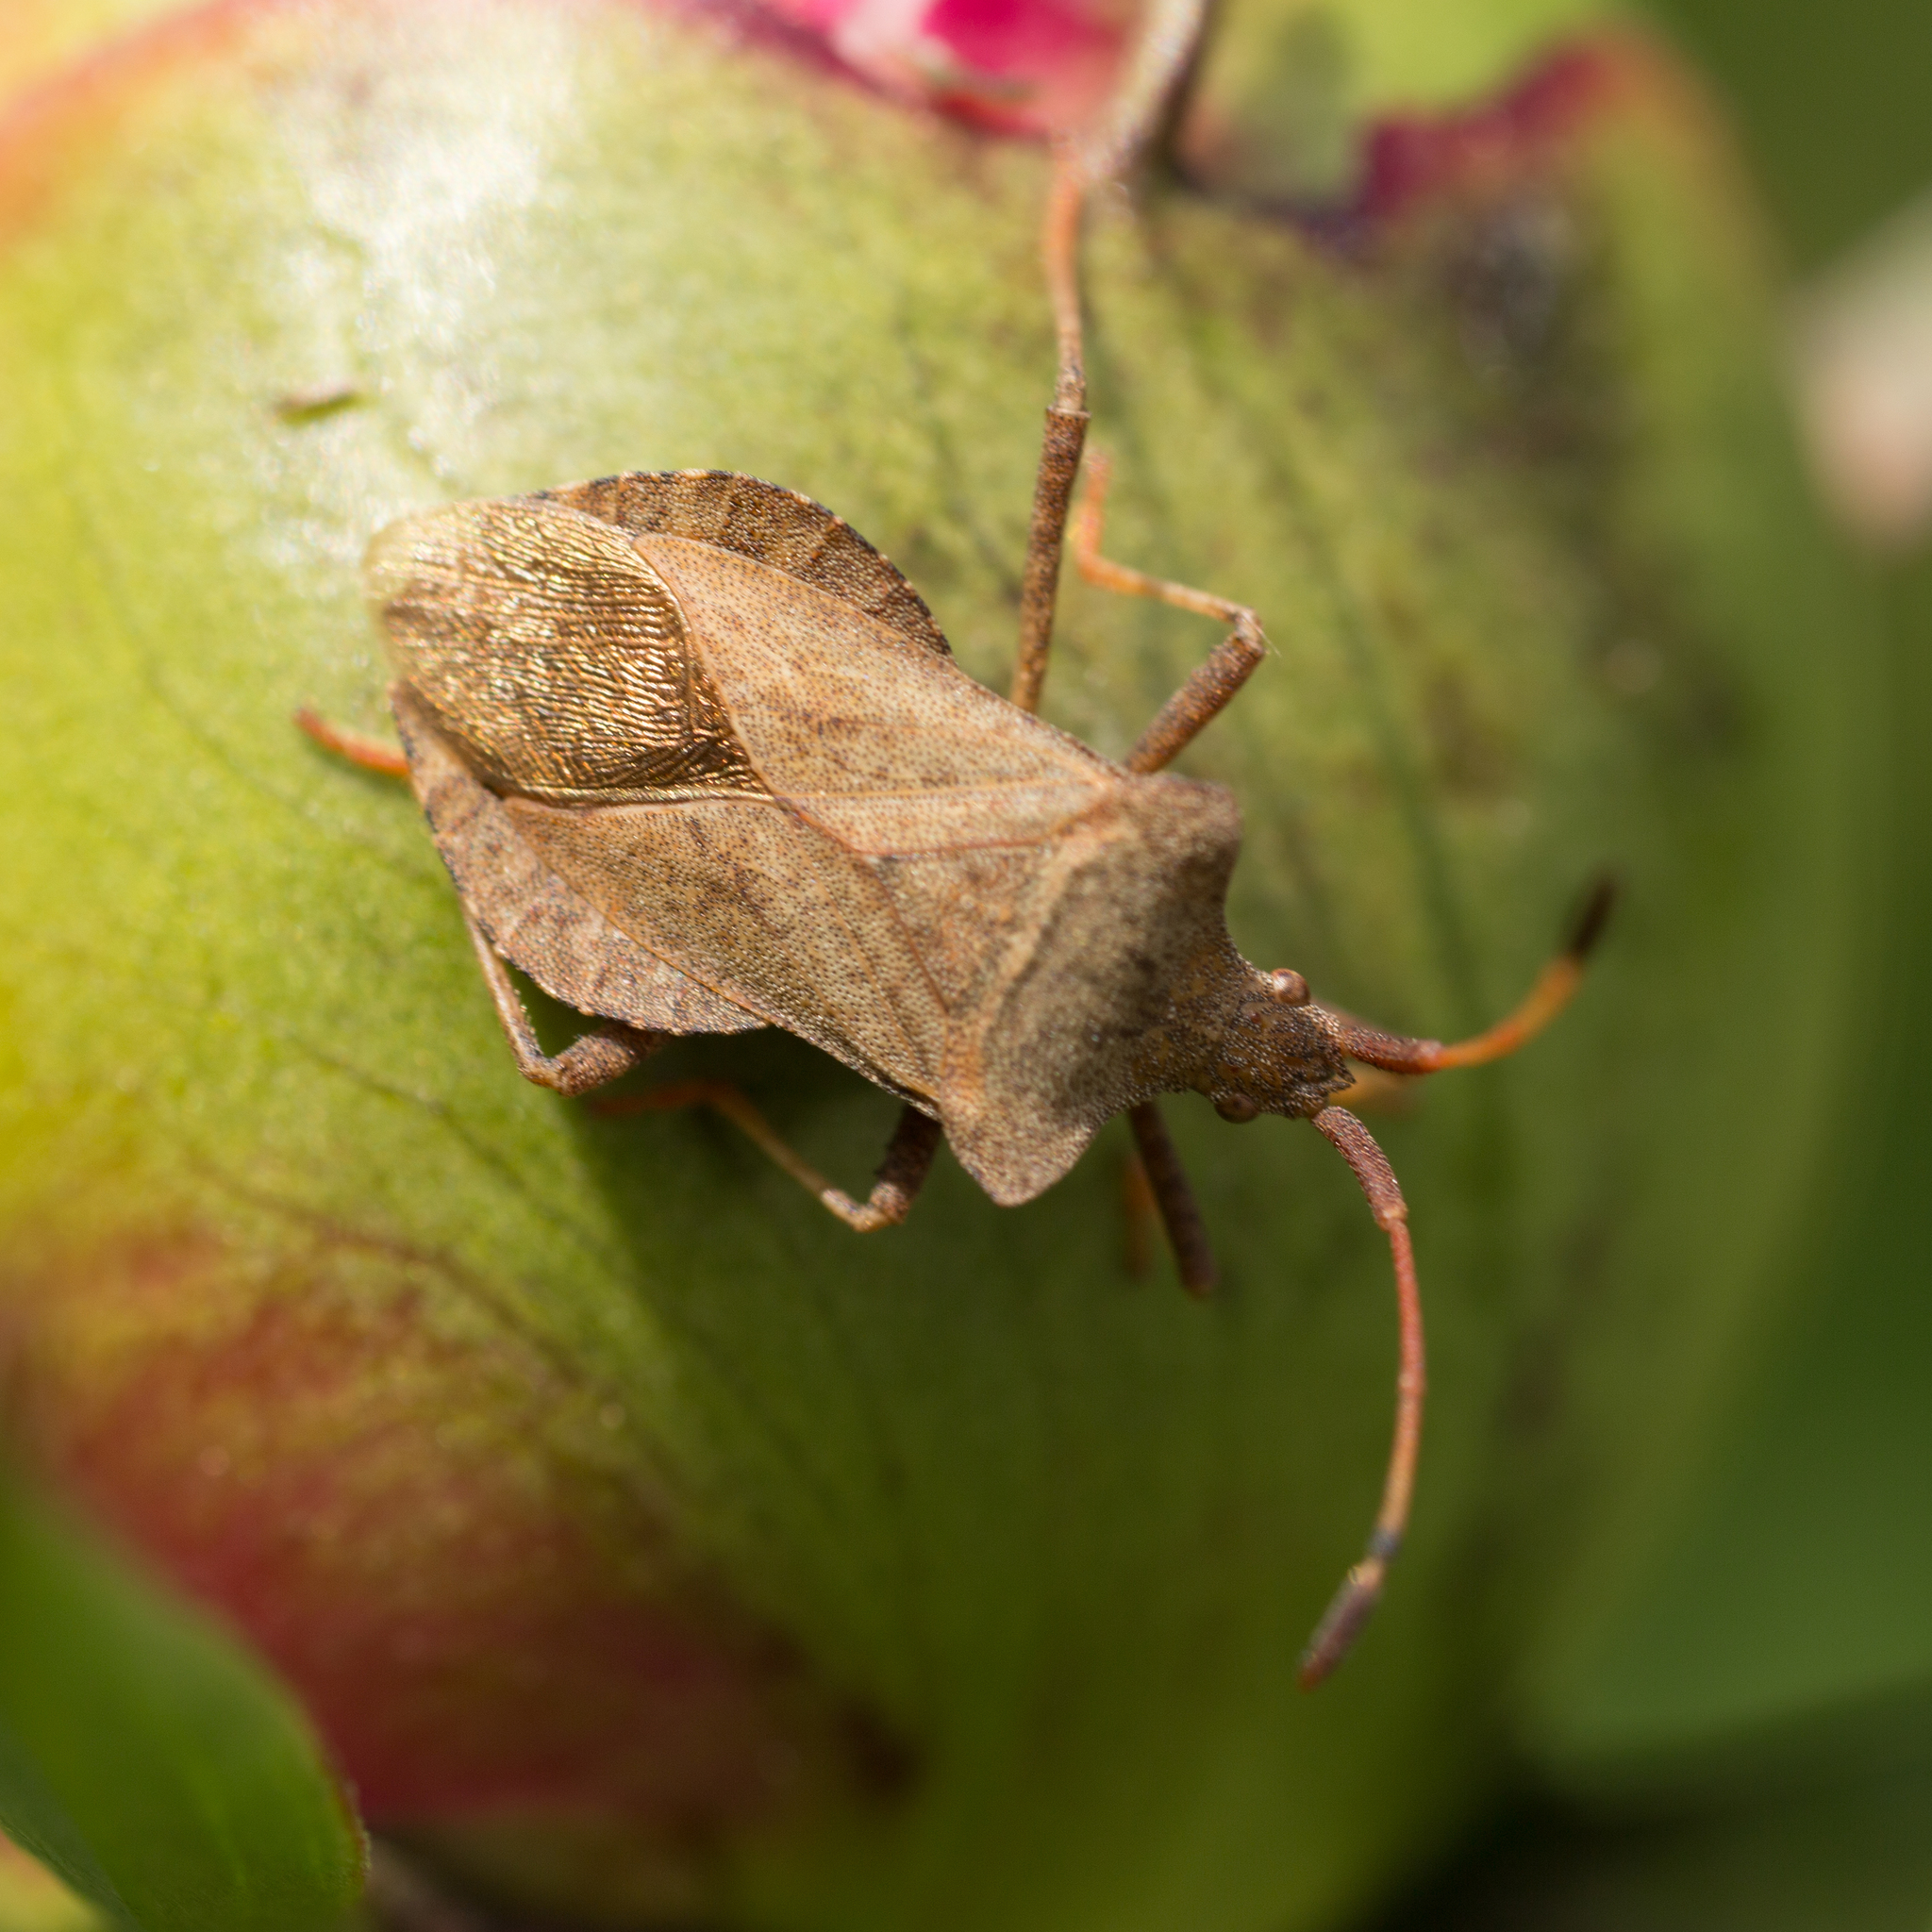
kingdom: Animalia
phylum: Arthropoda
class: Insecta
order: Hemiptera
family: Coreidae
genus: Coreus
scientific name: Coreus marginatus
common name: Dock bug
